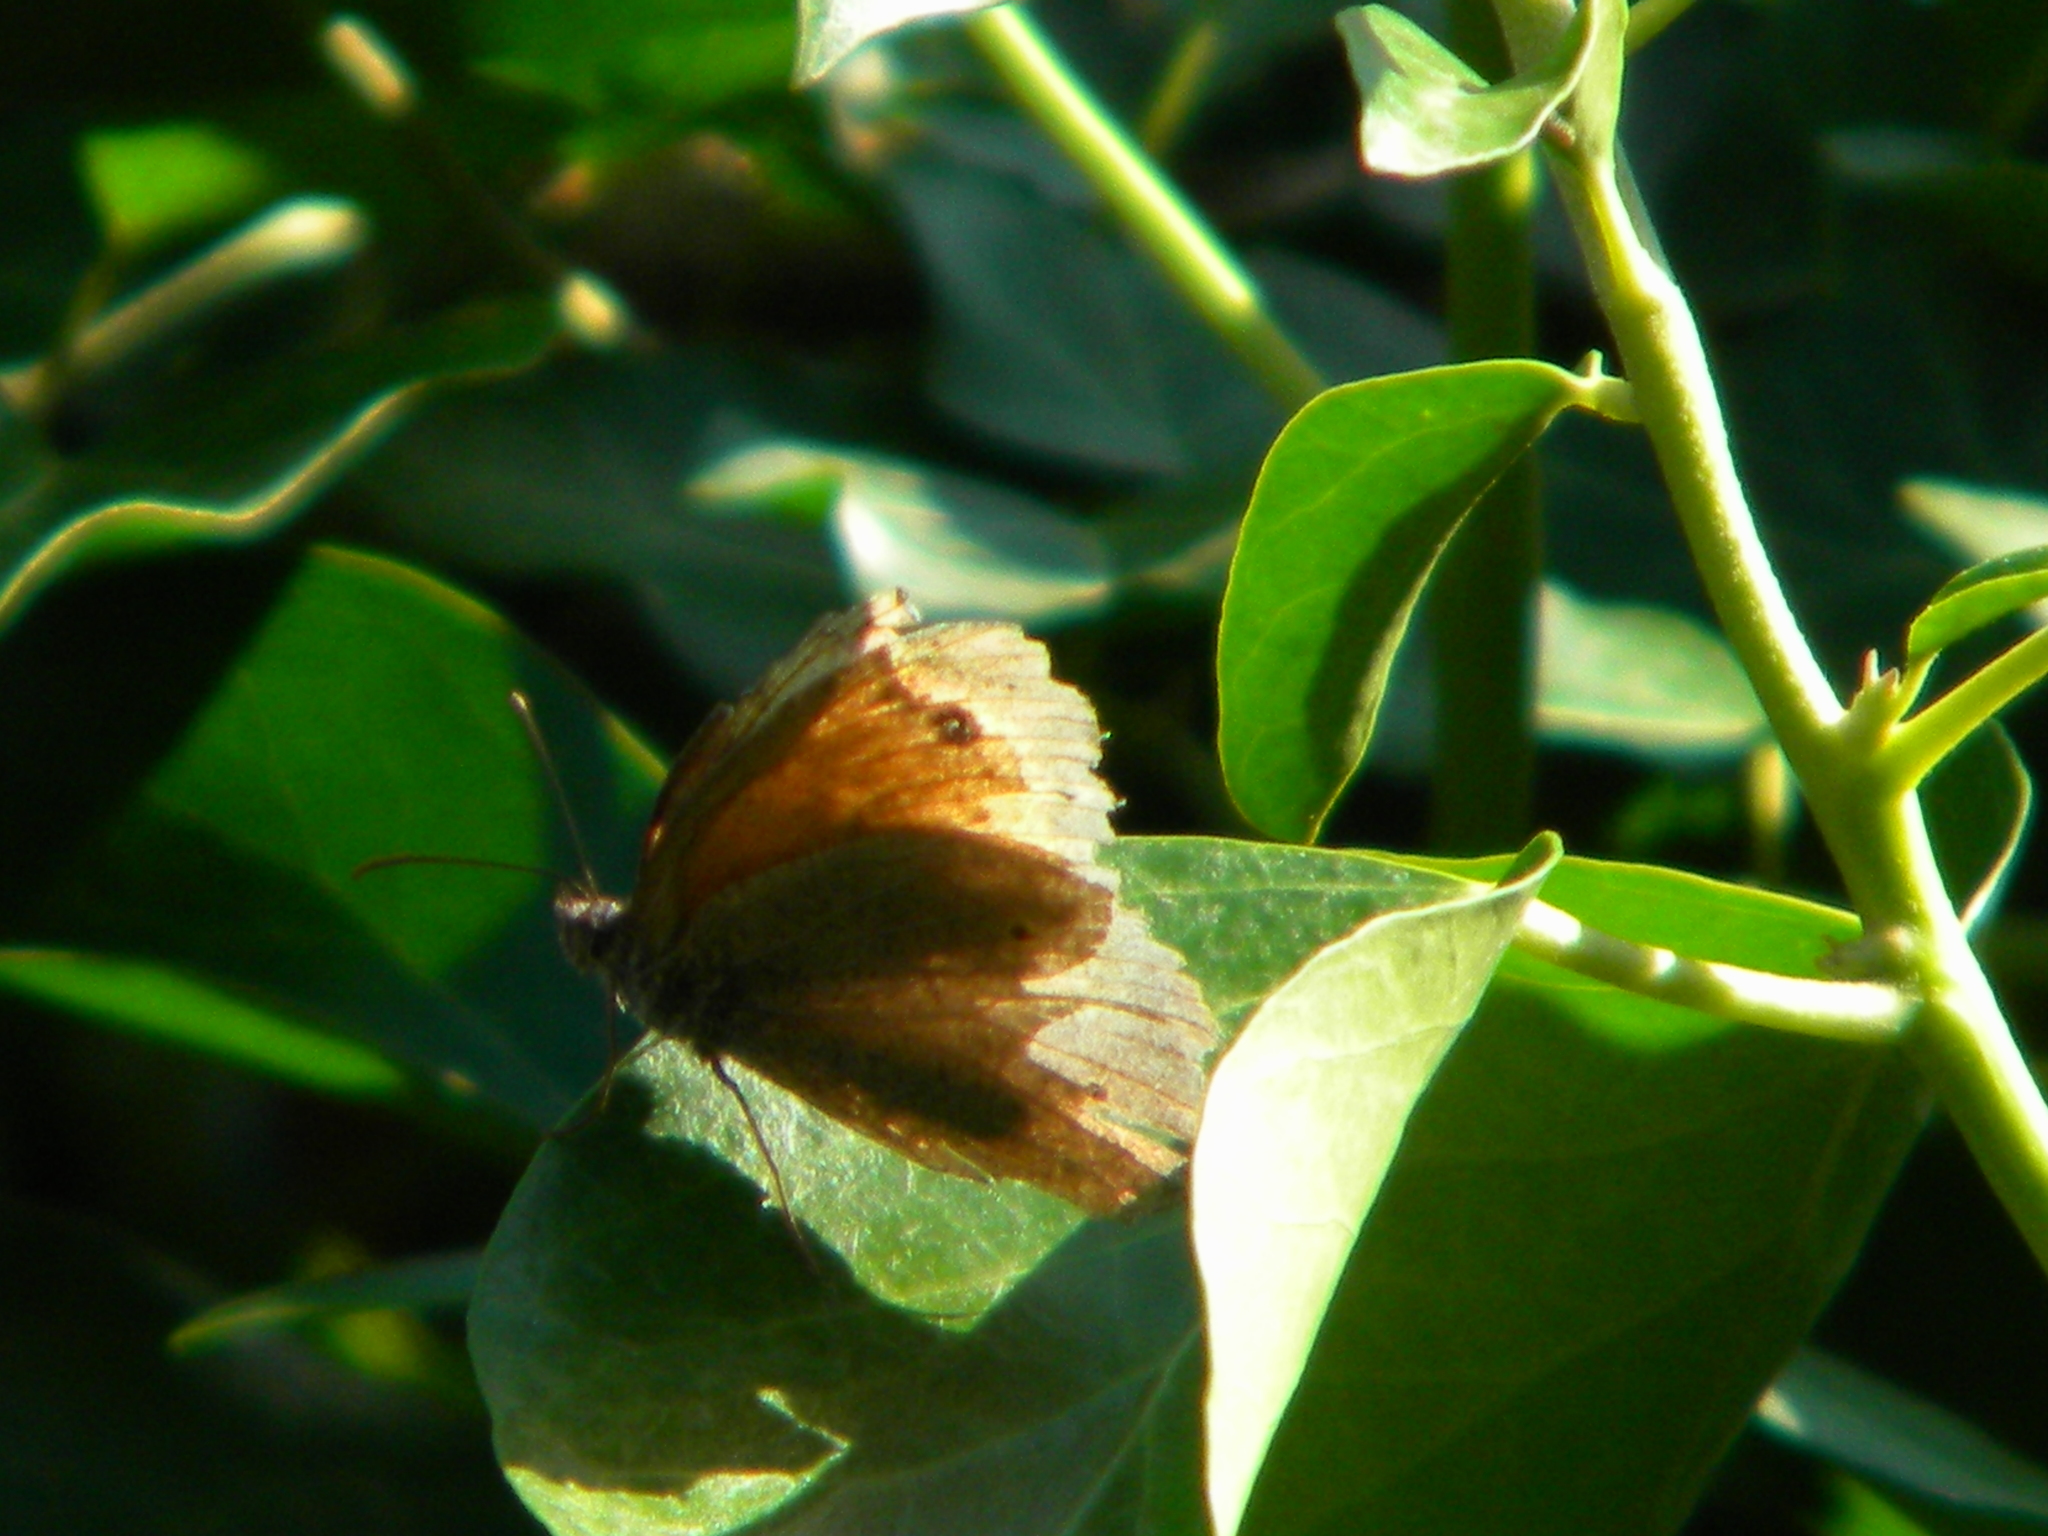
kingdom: Animalia
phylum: Arthropoda
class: Insecta
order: Lepidoptera
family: Nymphalidae
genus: Maniola
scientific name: Maniola jurtina
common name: Meadow brown
